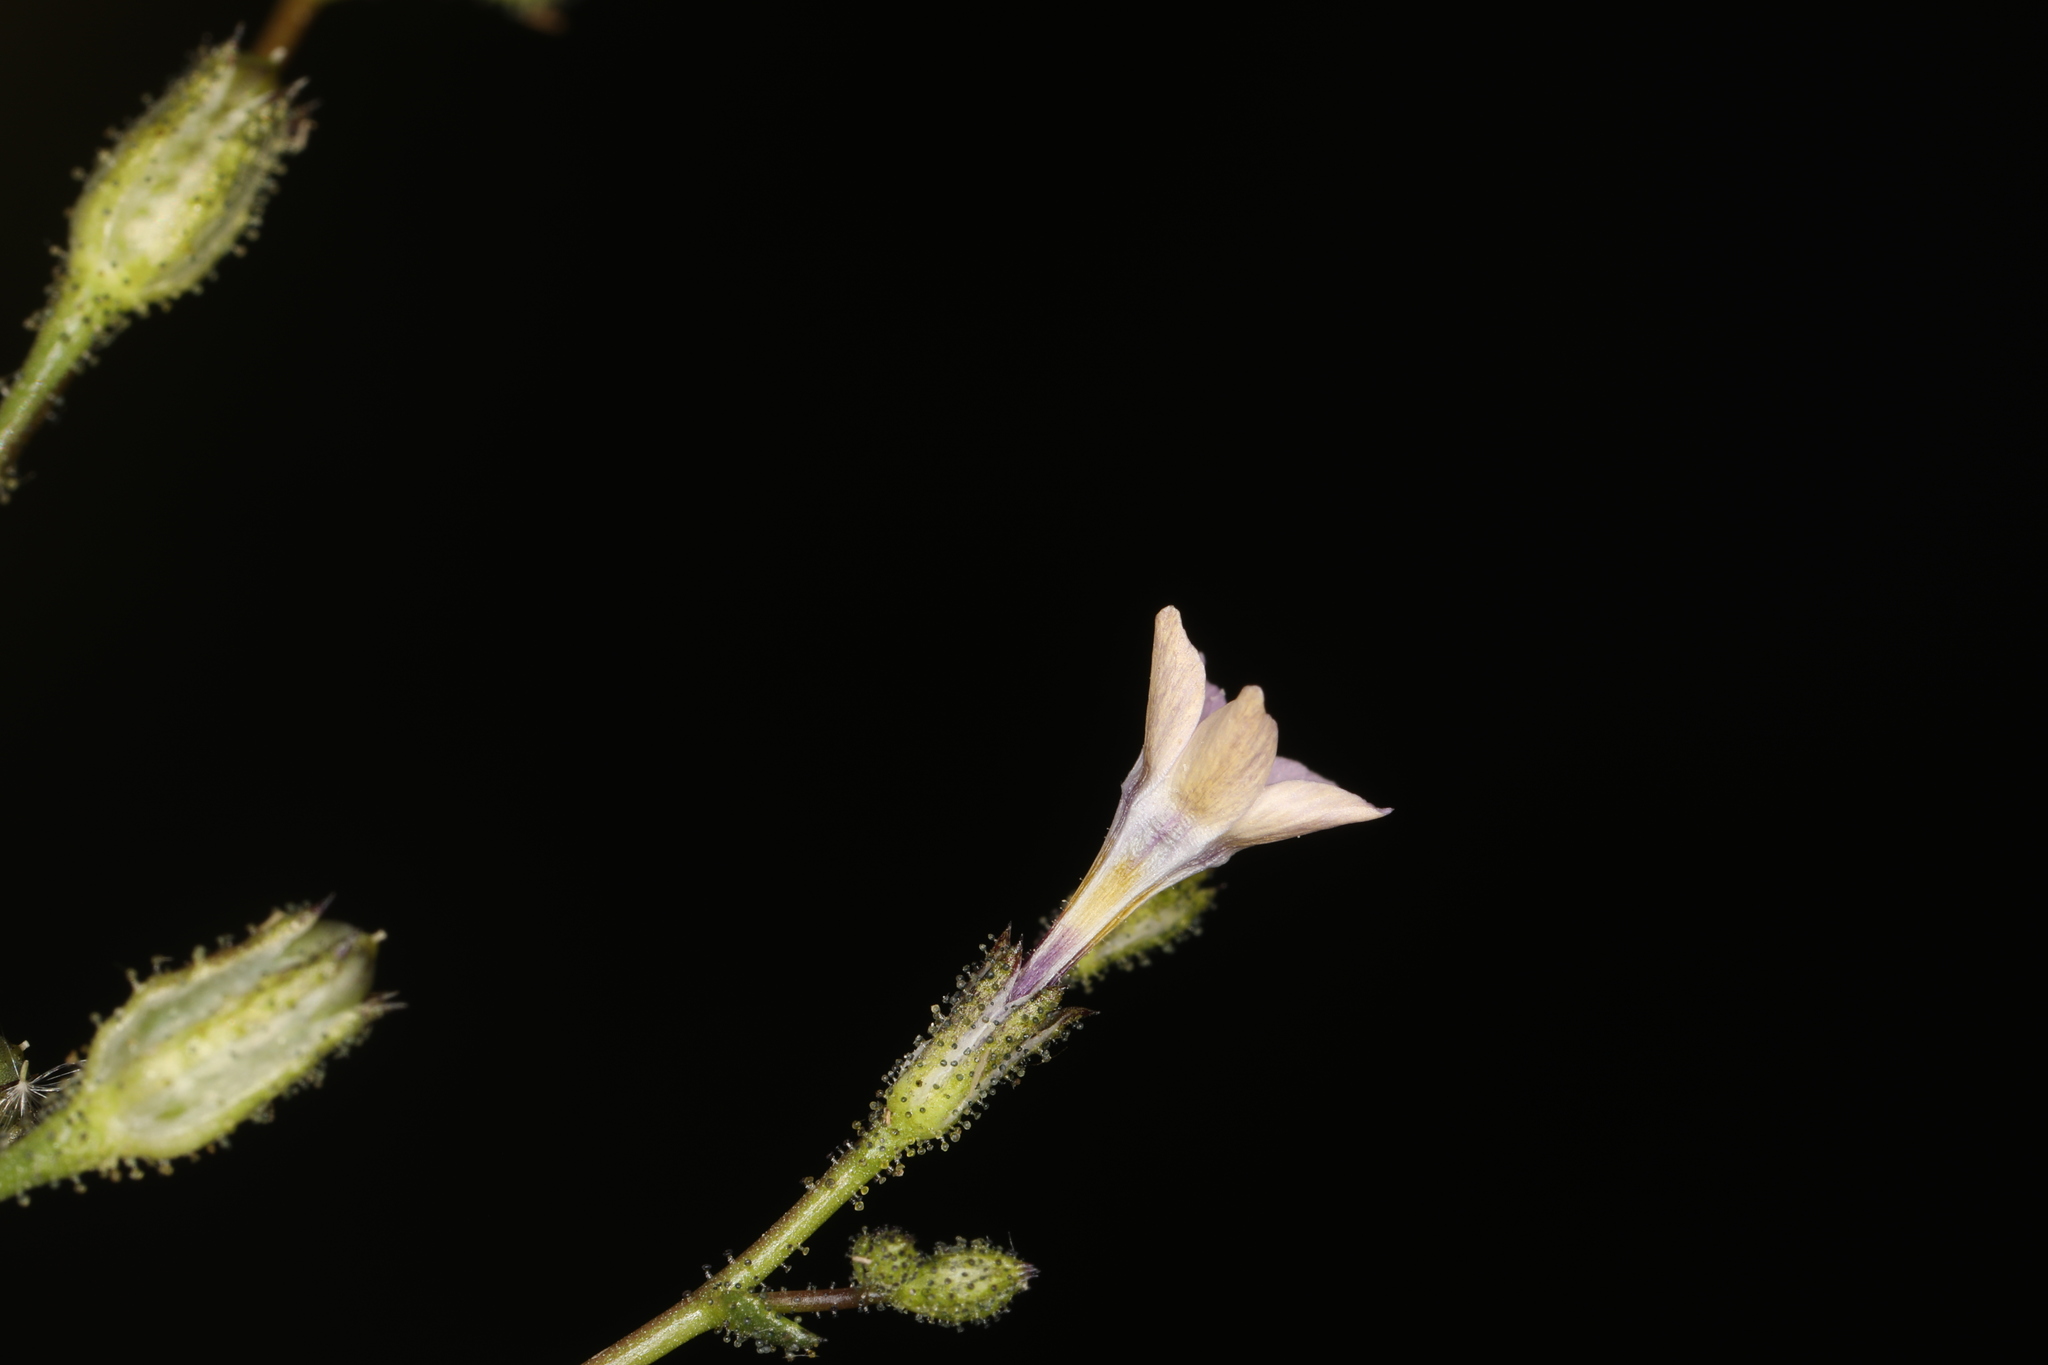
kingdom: Plantae
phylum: Tracheophyta
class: Magnoliopsida
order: Ericales
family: Polemoniaceae
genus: Gilia
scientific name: Gilia sinuata
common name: Rosy gilia
